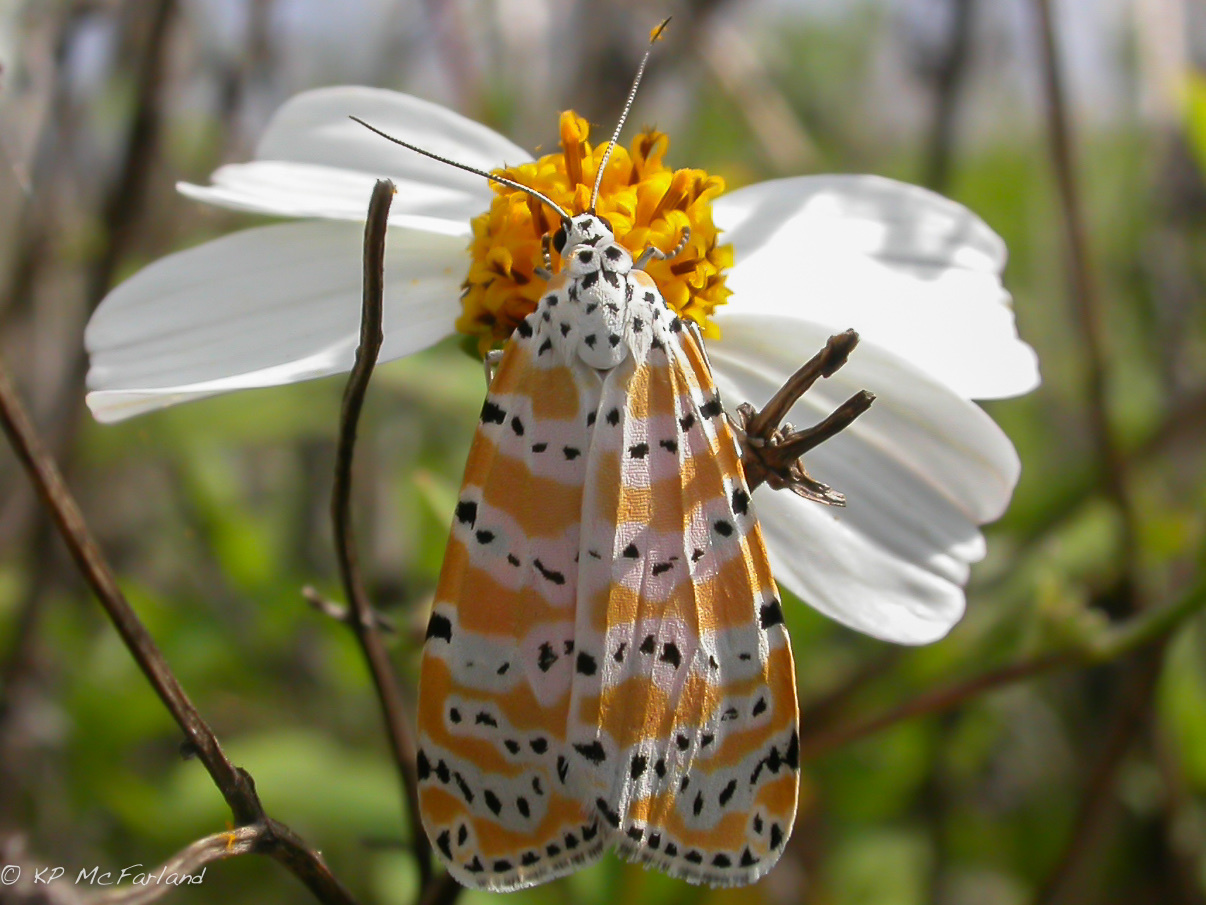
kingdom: Animalia
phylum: Arthropoda
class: Insecta
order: Lepidoptera
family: Erebidae
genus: Utetheisa
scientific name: Utetheisa ornatrix
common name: Beautiful utetheisa
